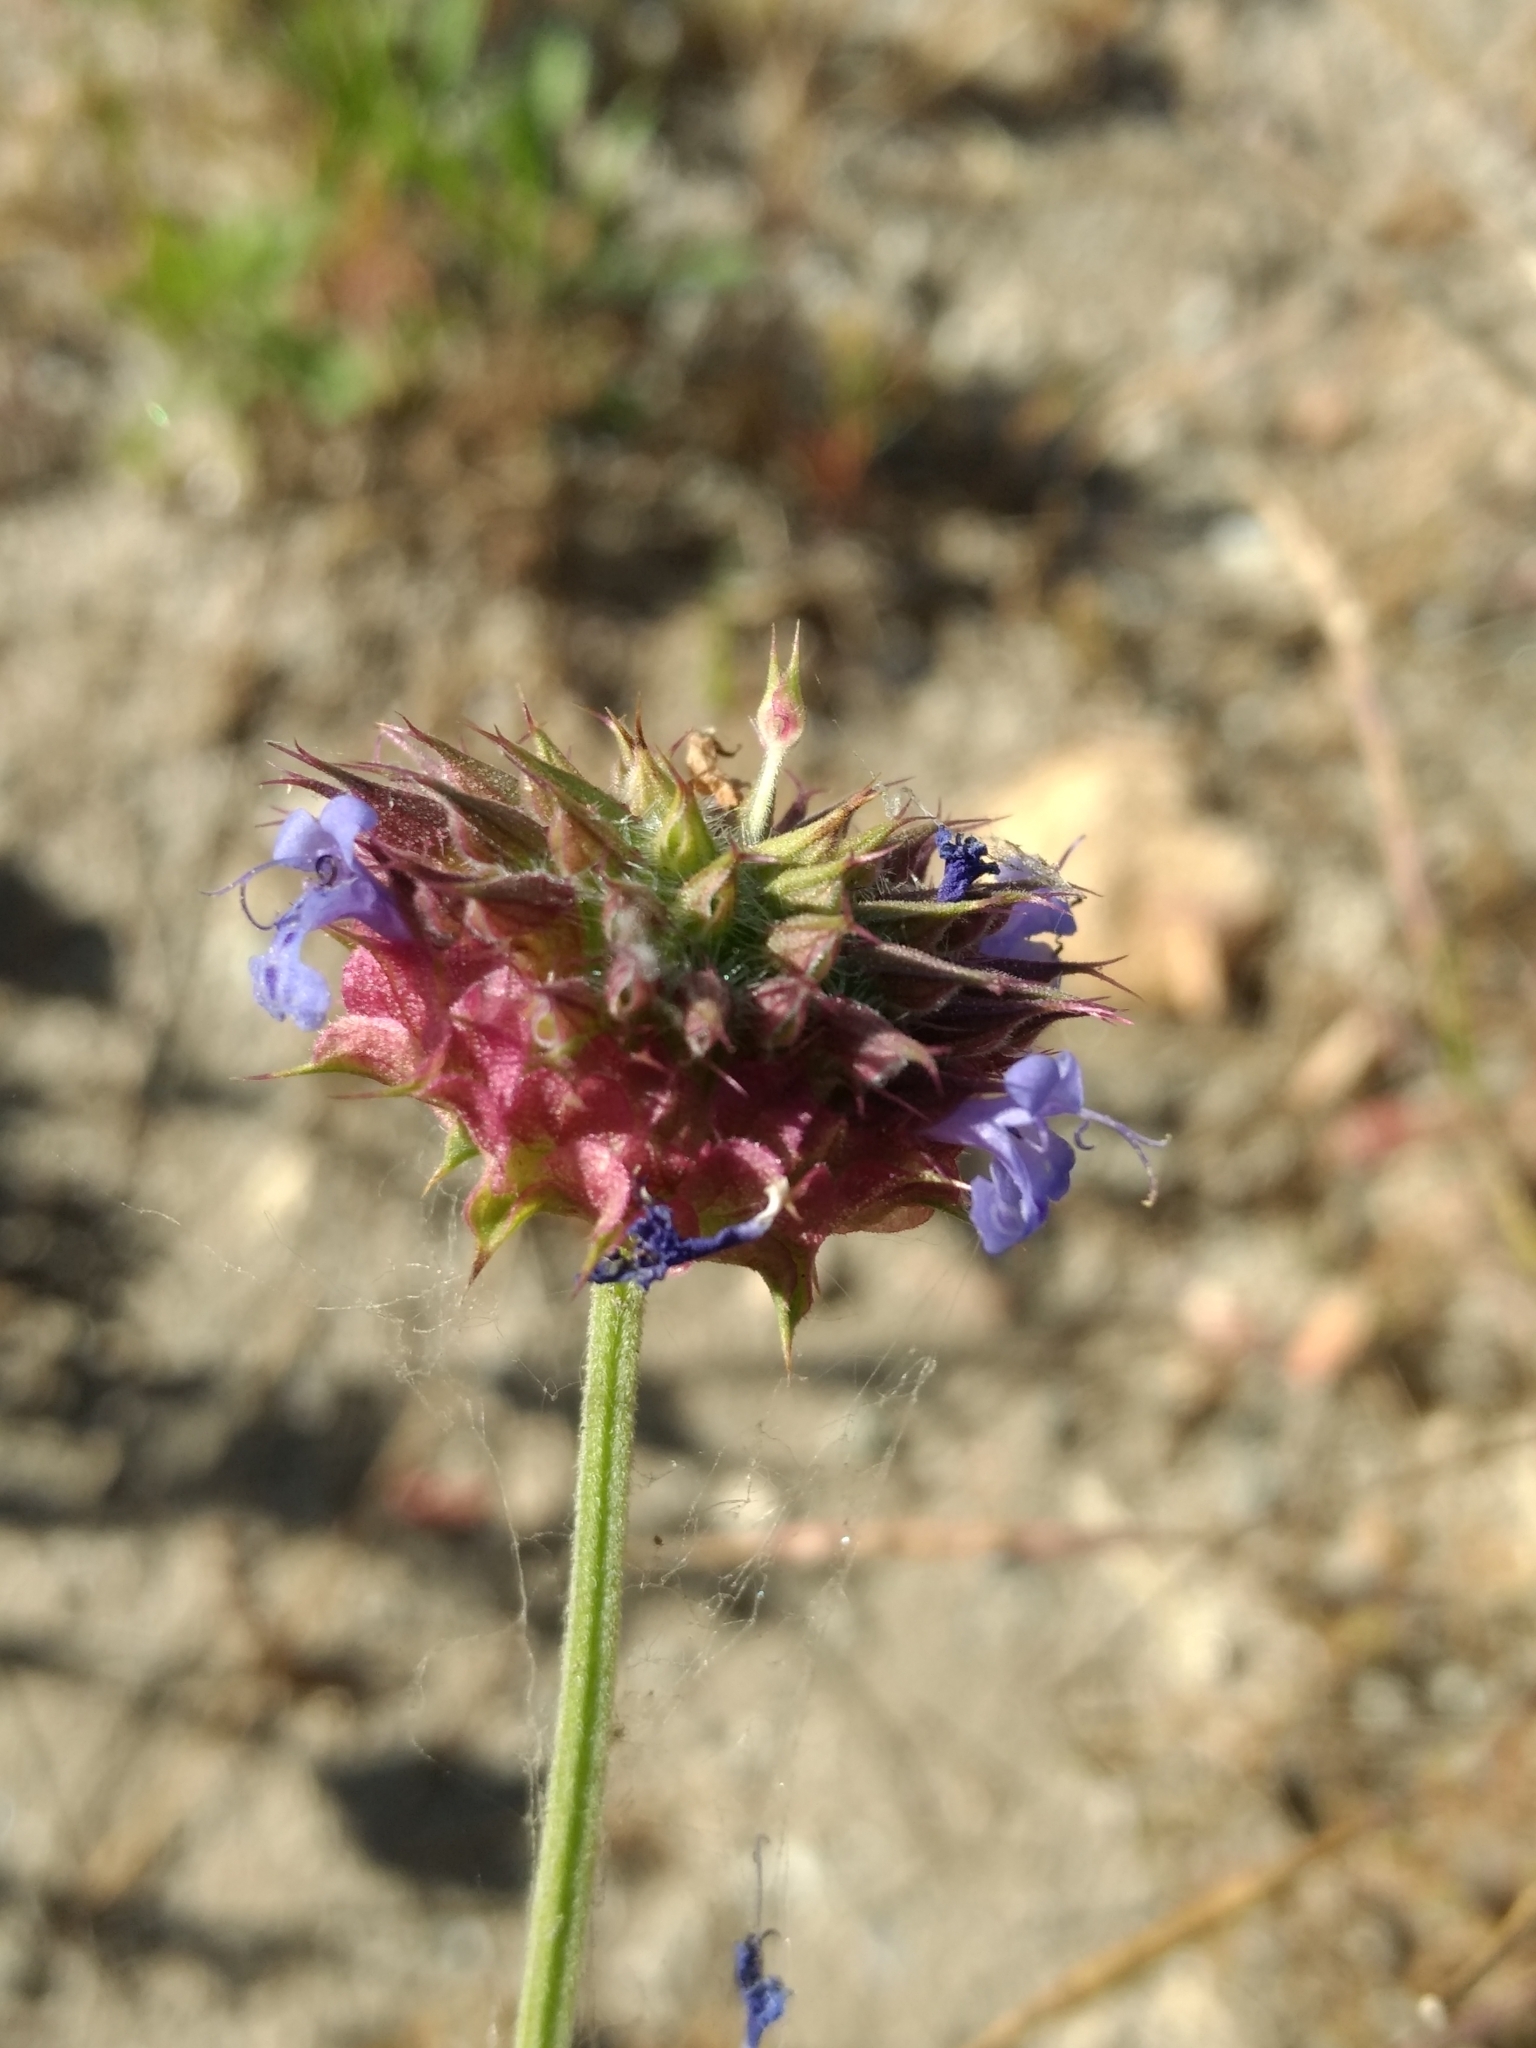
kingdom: Plantae
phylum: Tracheophyta
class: Magnoliopsida
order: Lamiales
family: Lamiaceae
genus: Salvia
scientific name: Salvia columbariae
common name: Chia
